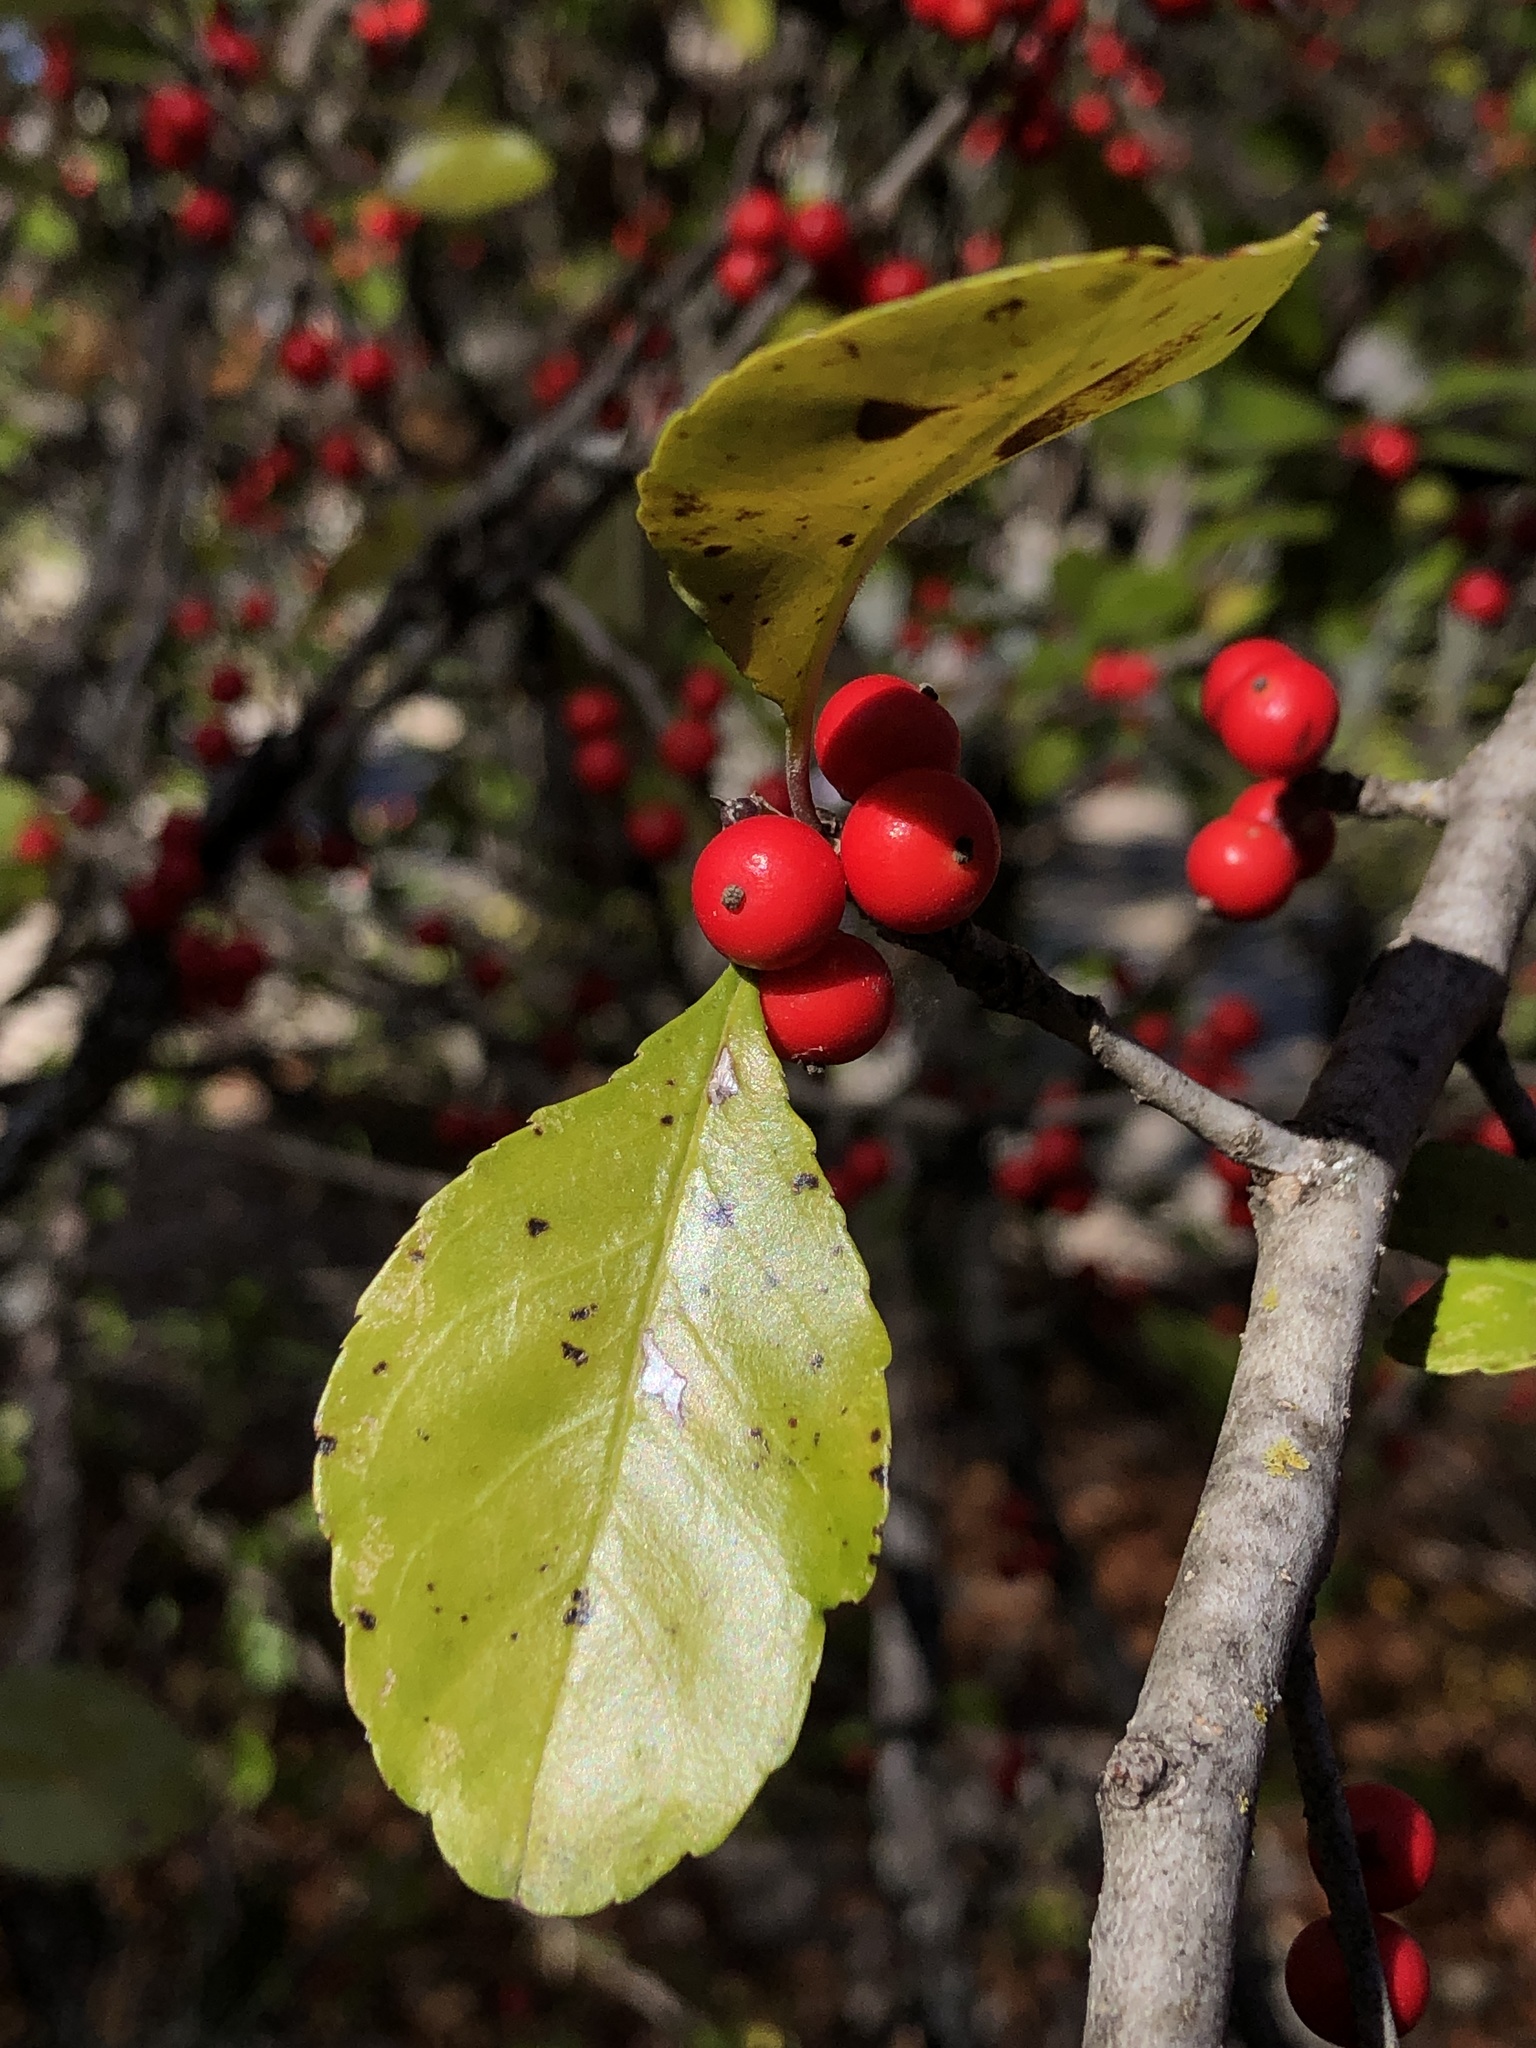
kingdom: Plantae
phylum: Tracheophyta
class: Magnoliopsida
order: Aquifoliales
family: Aquifoliaceae
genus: Ilex
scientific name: Ilex decidua
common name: Possum-haw
